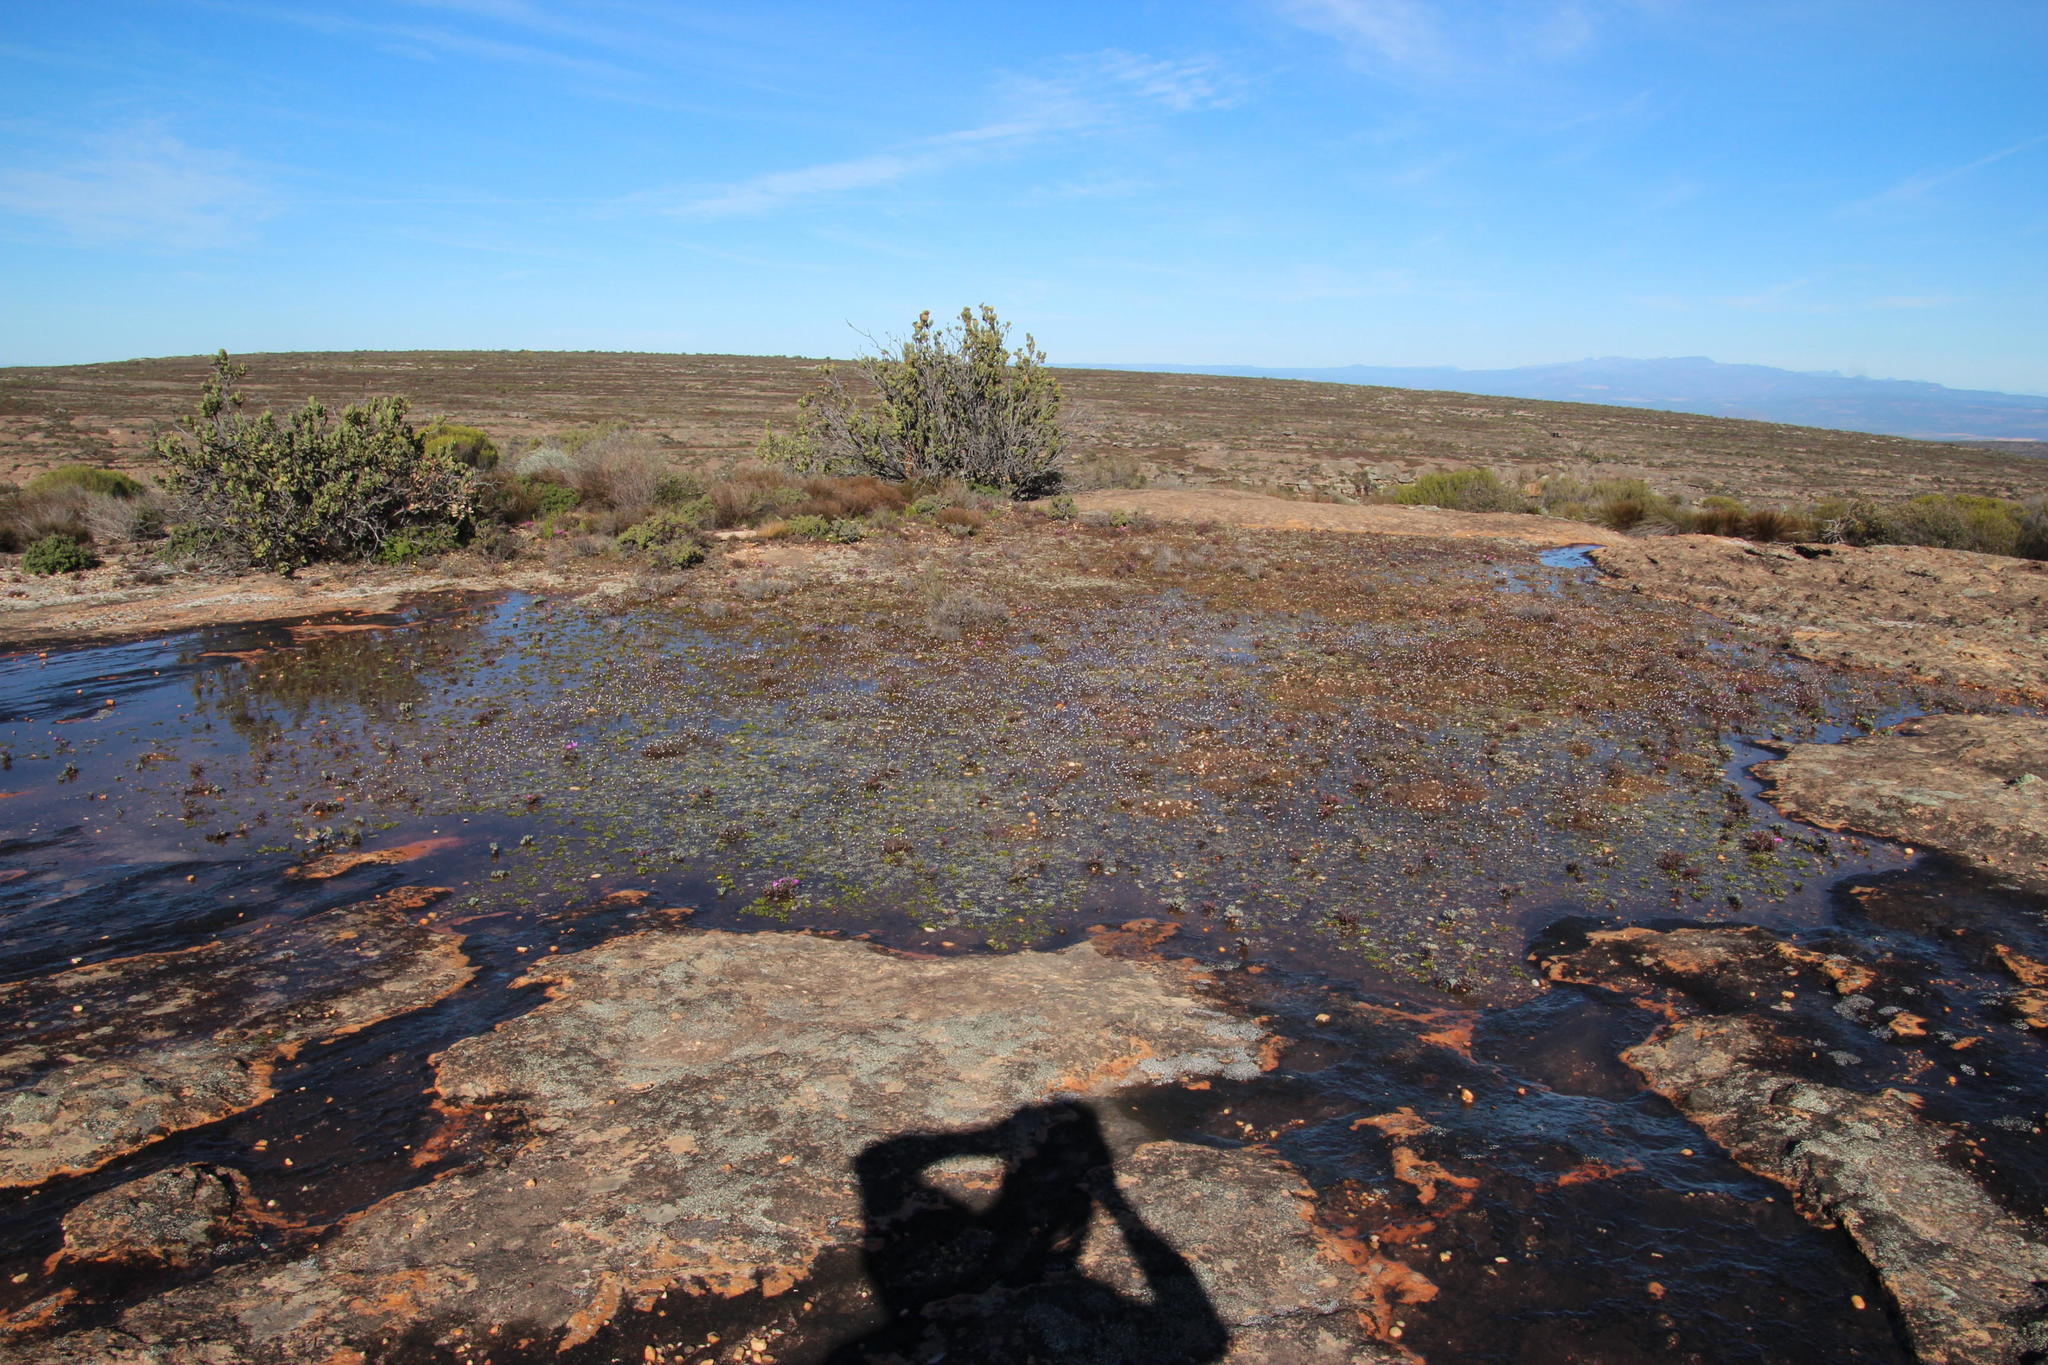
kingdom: Plantae
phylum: Tracheophyta
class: Magnoliopsida
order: Brassicales
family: Brassicaceae
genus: Heliophila
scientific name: Heliophila pinnata
